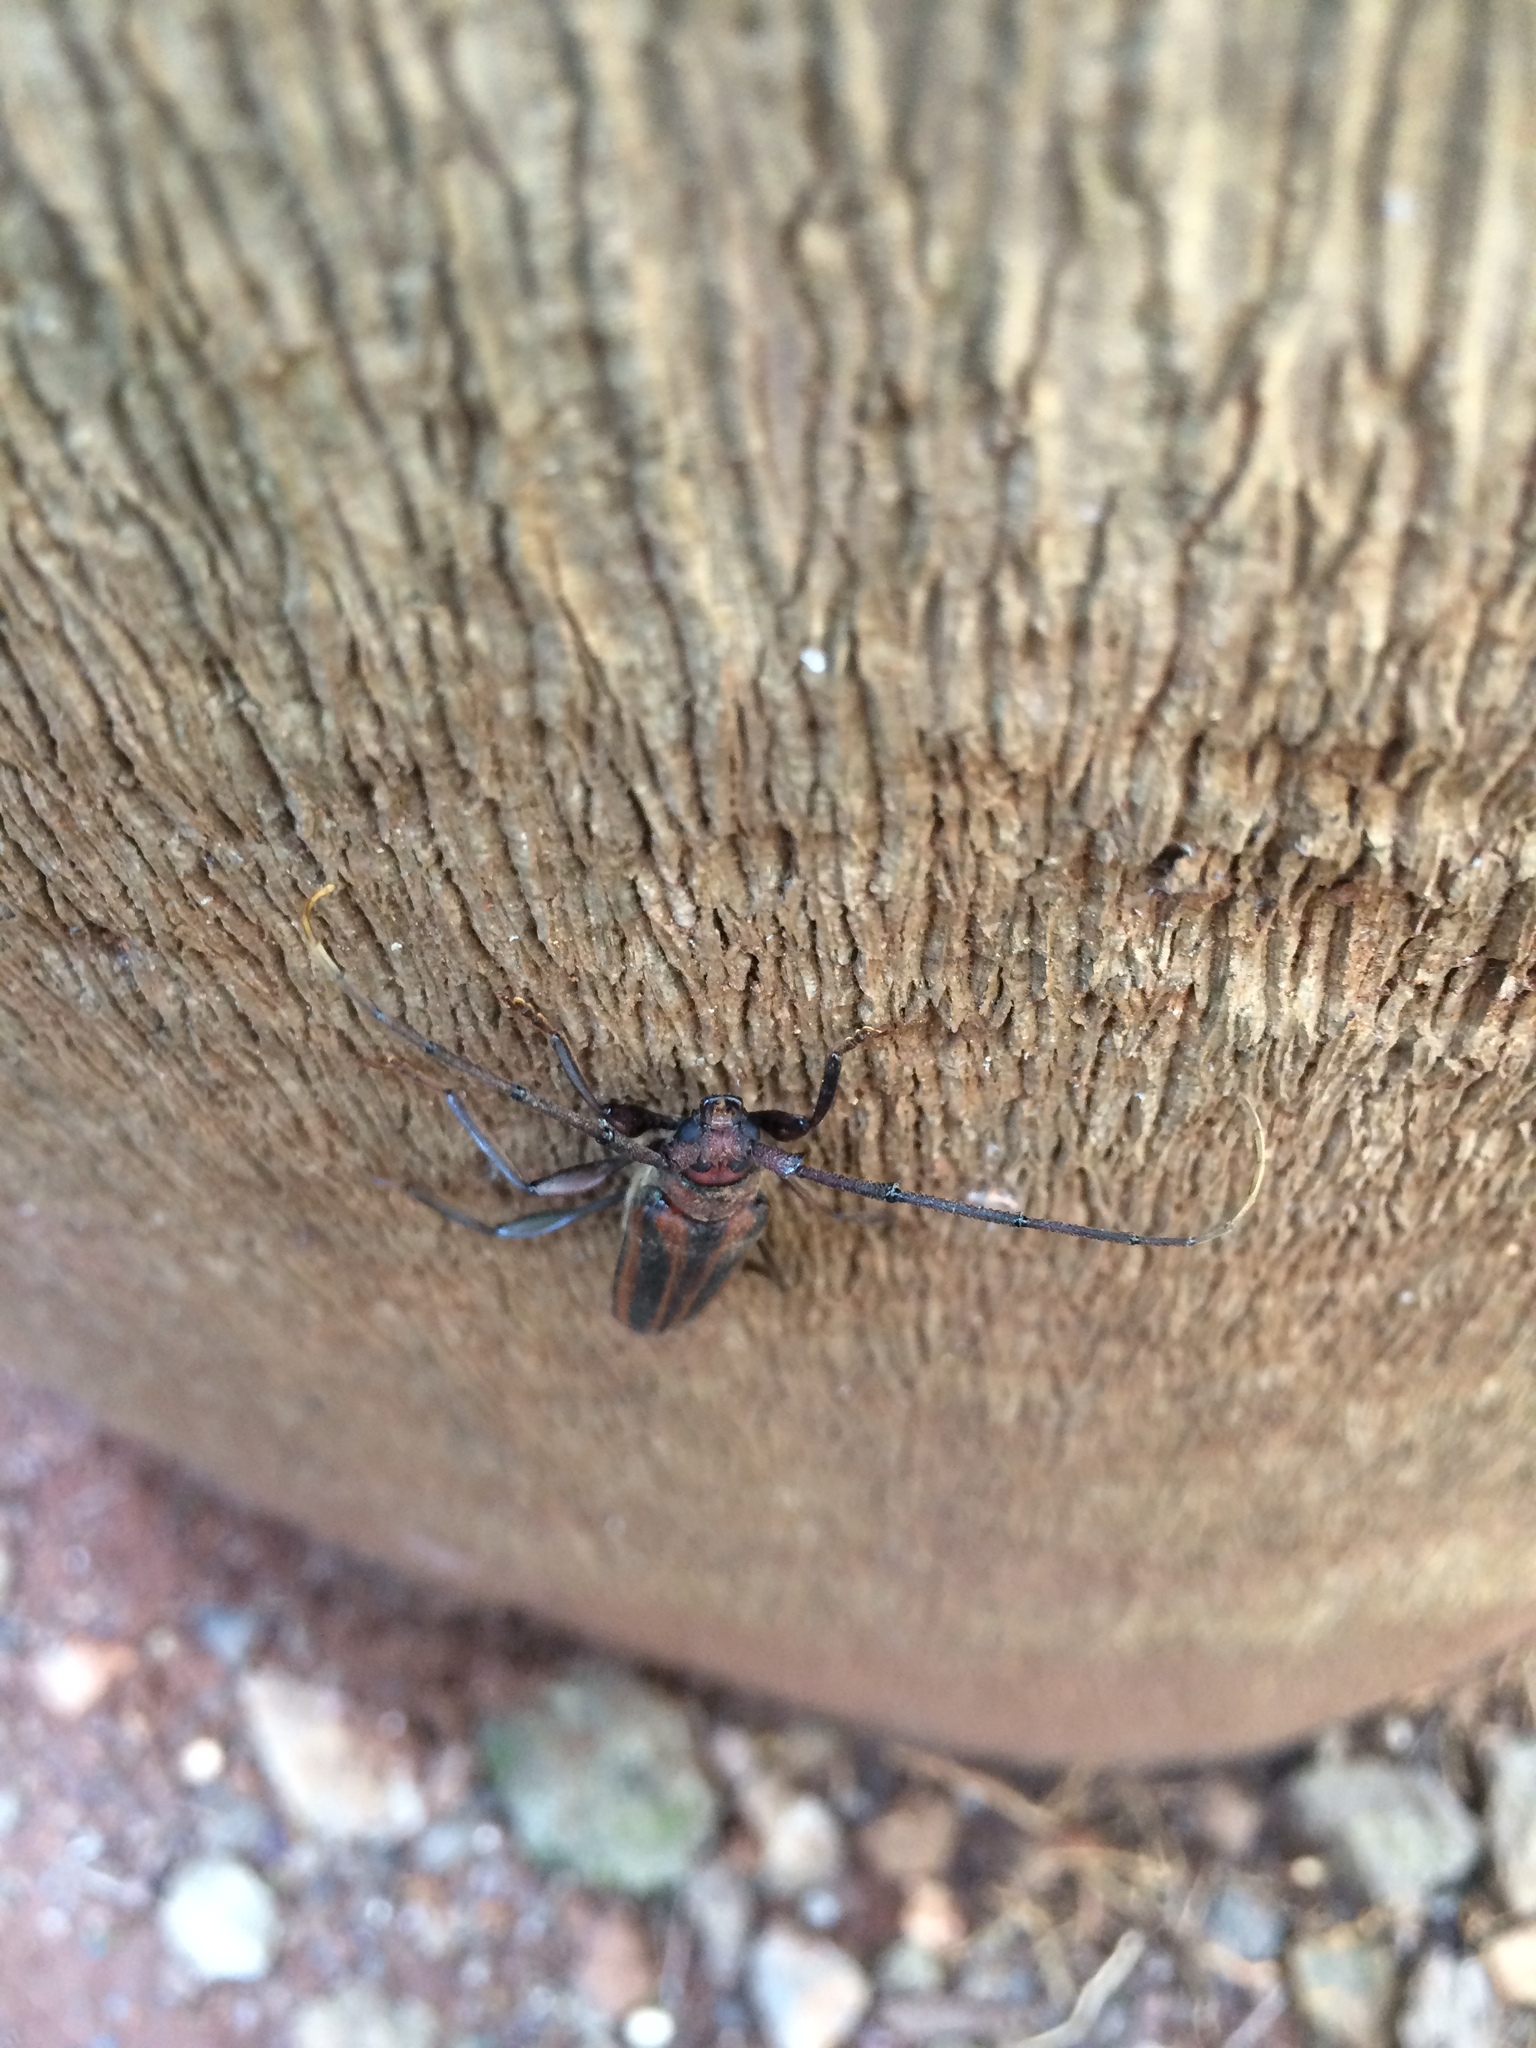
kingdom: Animalia
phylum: Arthropoda
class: Insecta
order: Coleoptera
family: Cerambycidae
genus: Xystrocera
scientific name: Xystrocera globosa
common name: Peach-tree longhorn
